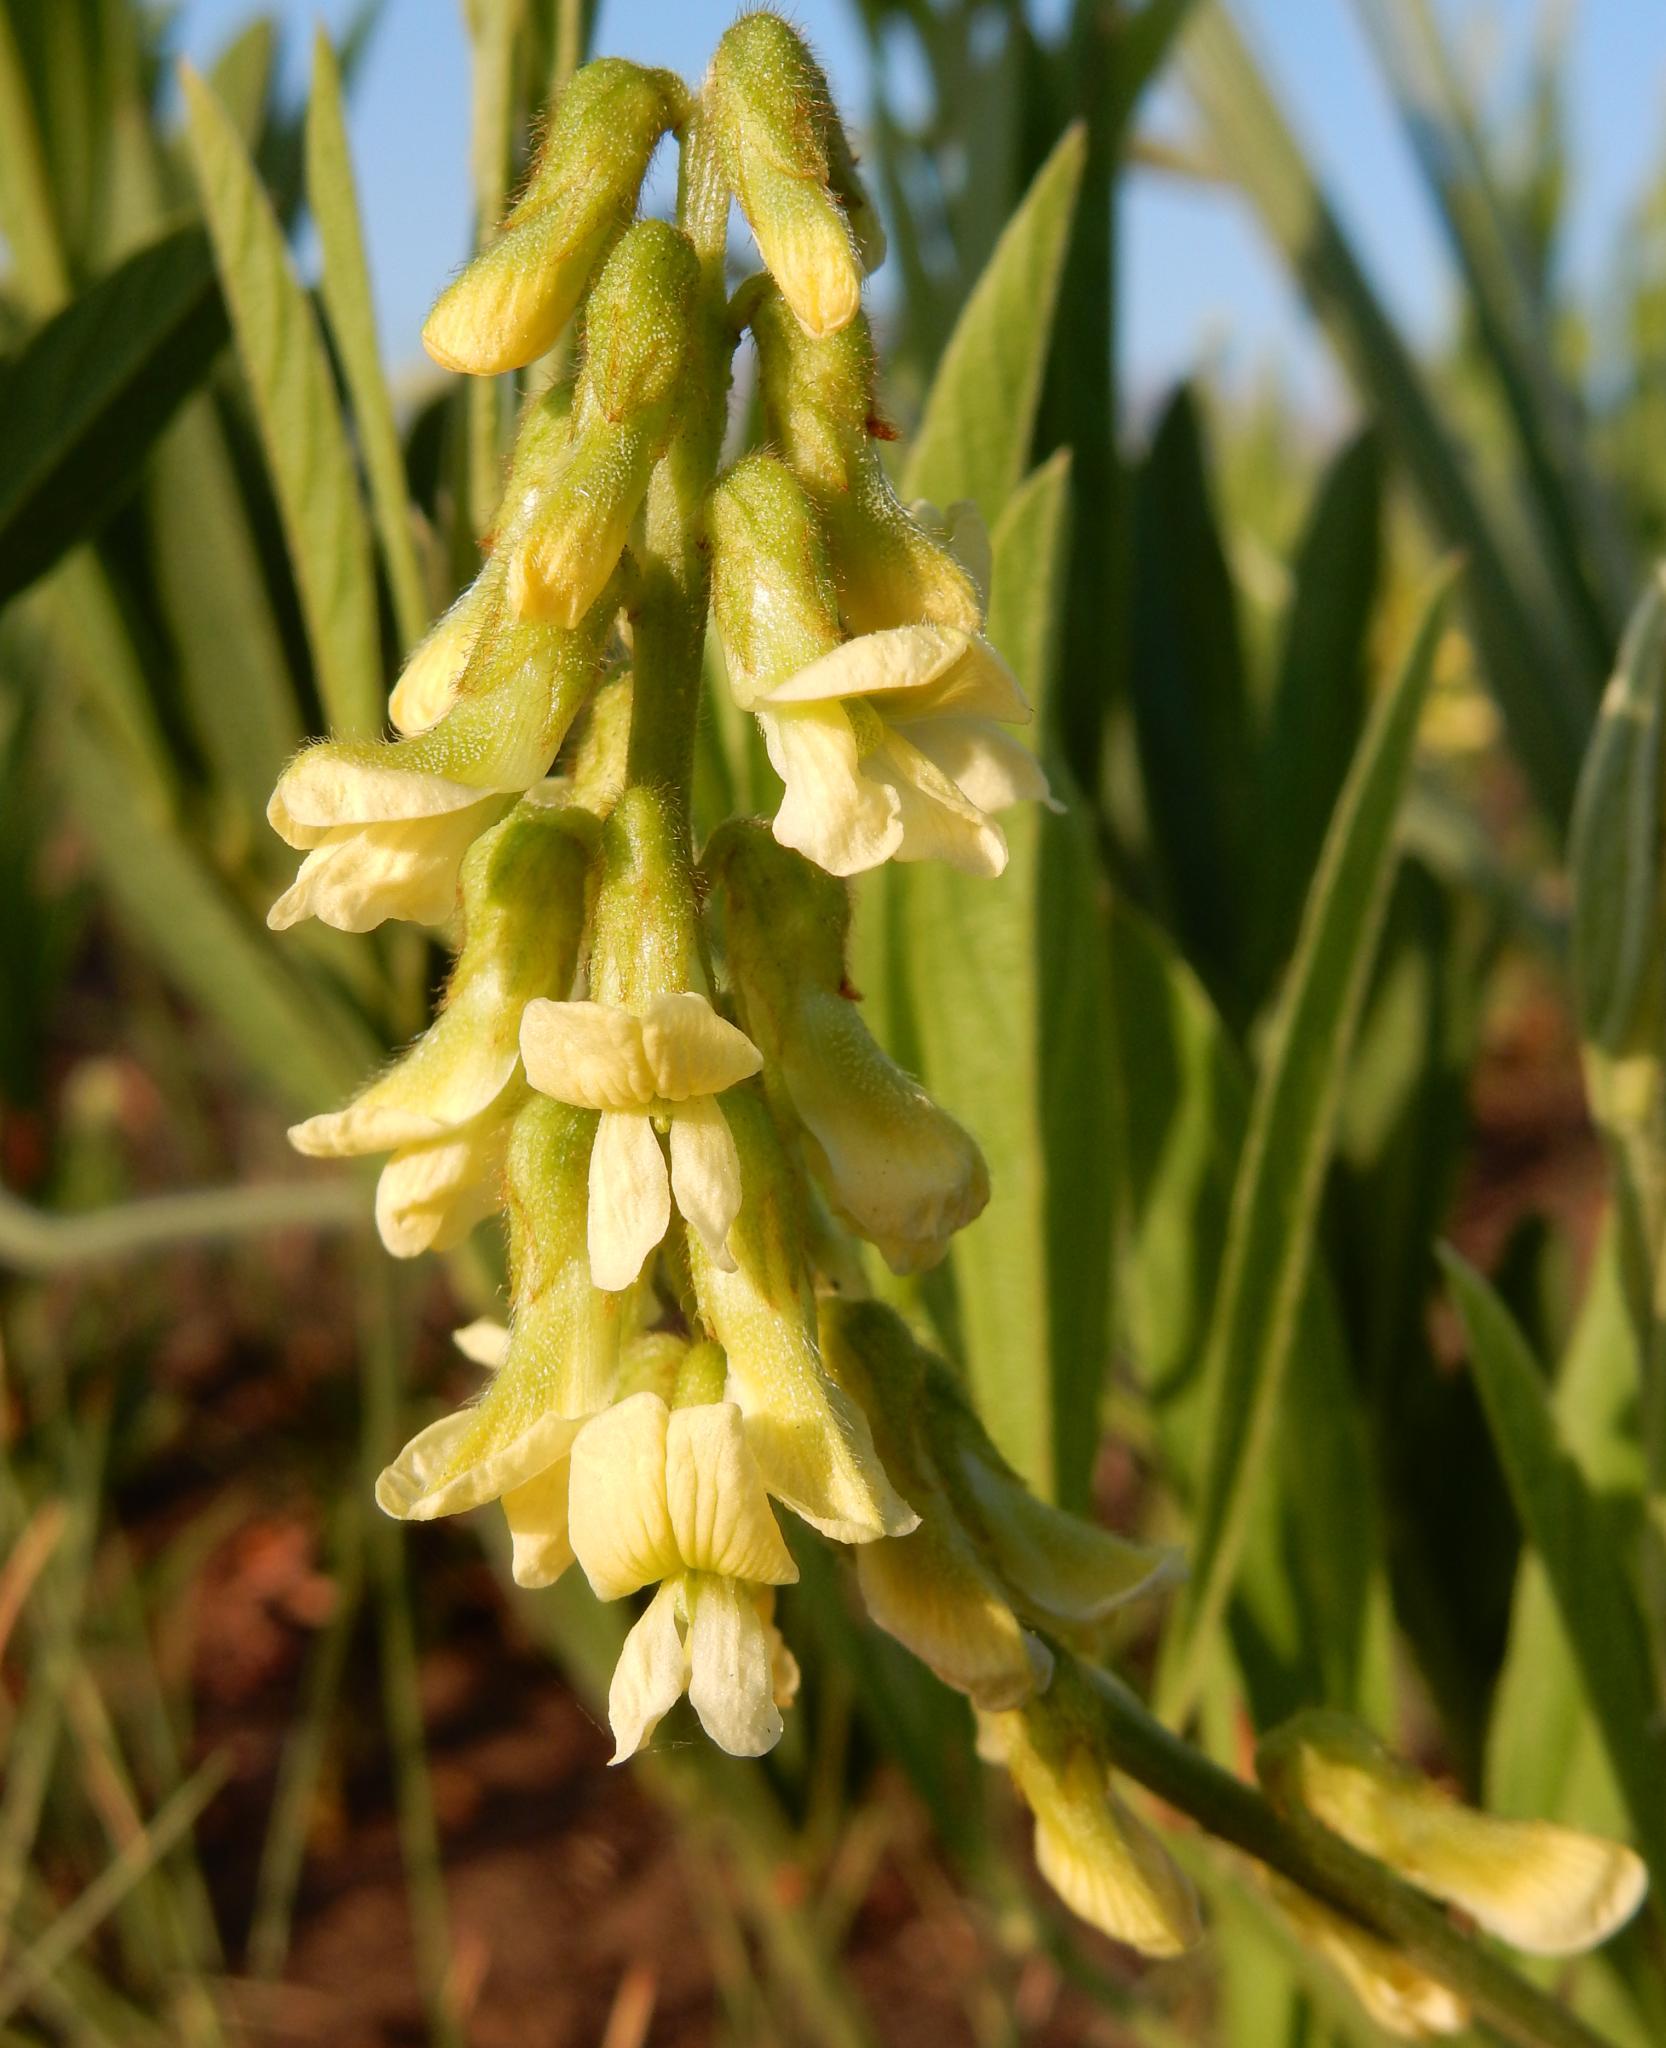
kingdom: Plantae
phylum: Tracheophyta
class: Magnoliopsida
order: Fabales
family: Fabaceae
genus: Eriosema
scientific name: Eriosema kraussianum
